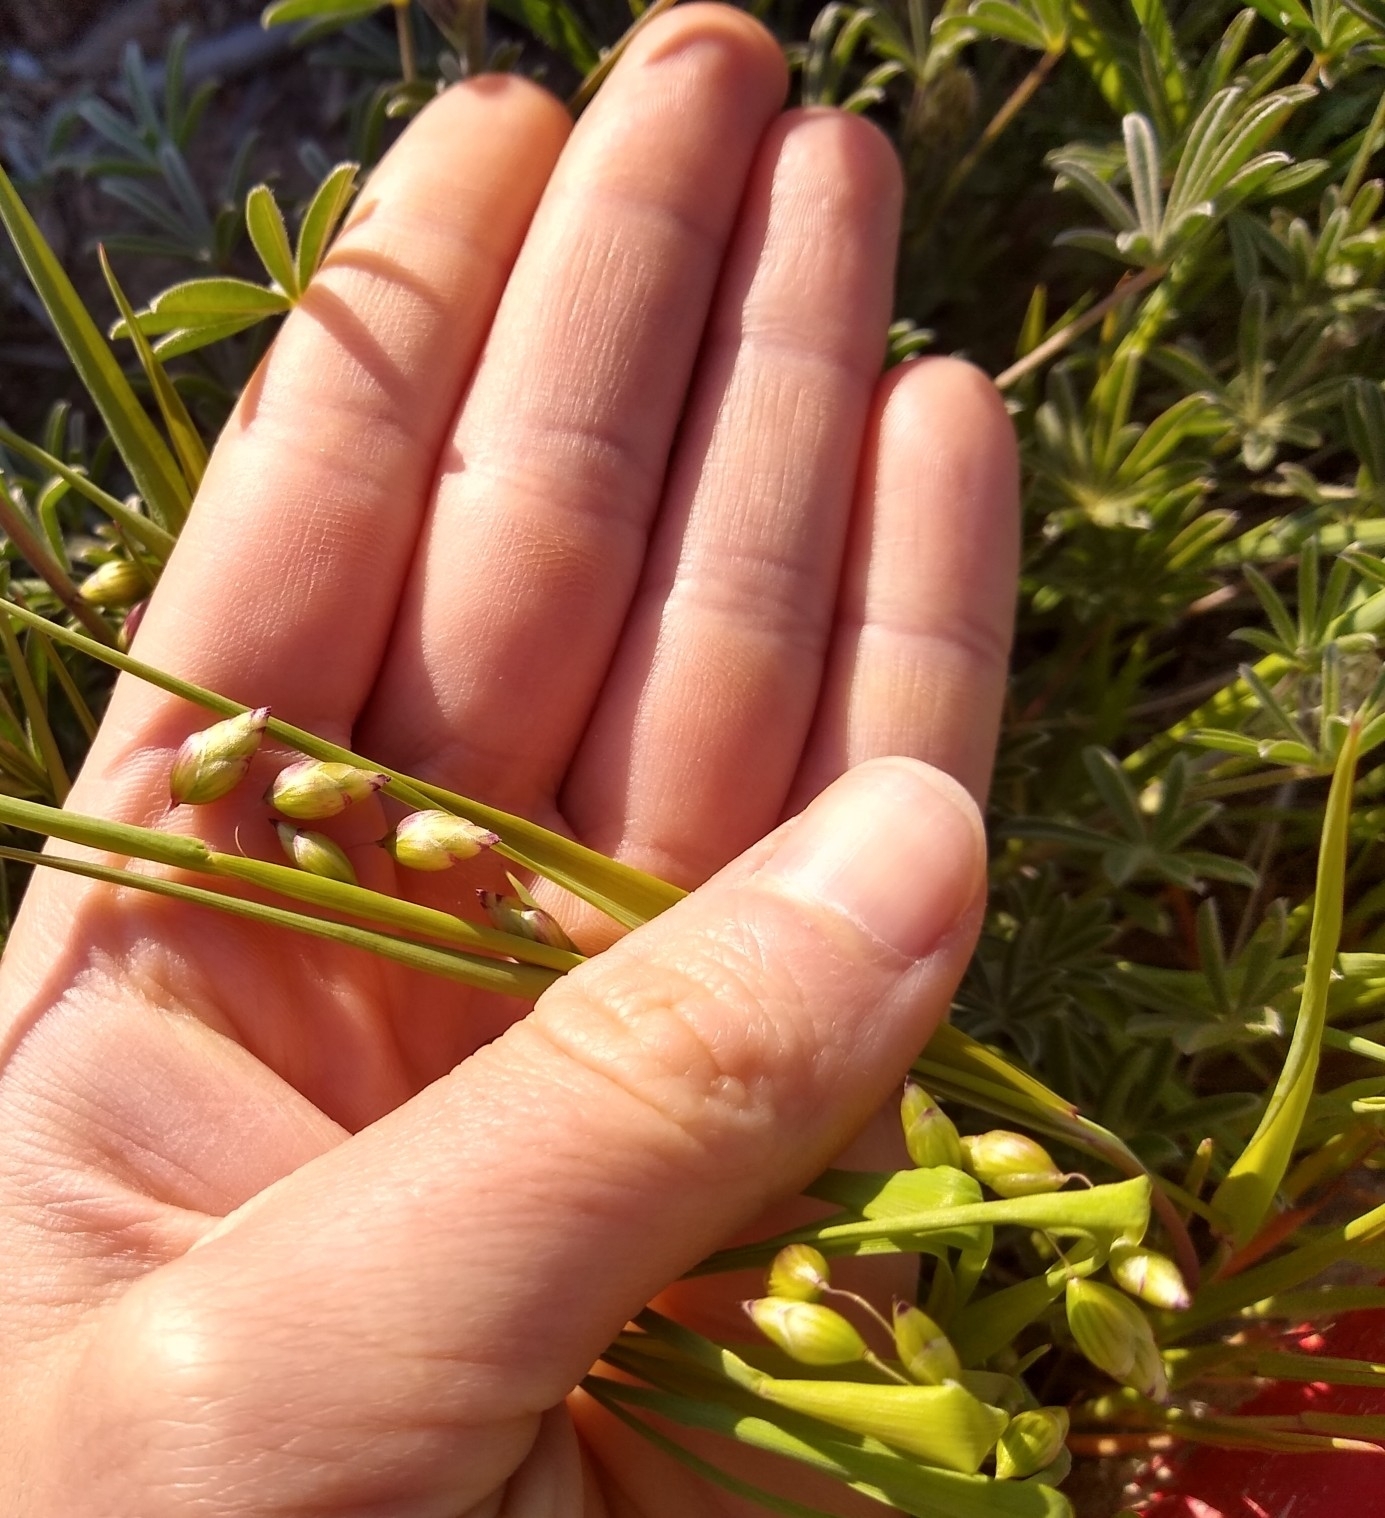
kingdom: Plantae
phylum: Tracheophyta
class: Liliopsida
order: Poales
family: Poaceae
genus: Briza
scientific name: Briza maxima
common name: Big quakinggrass
